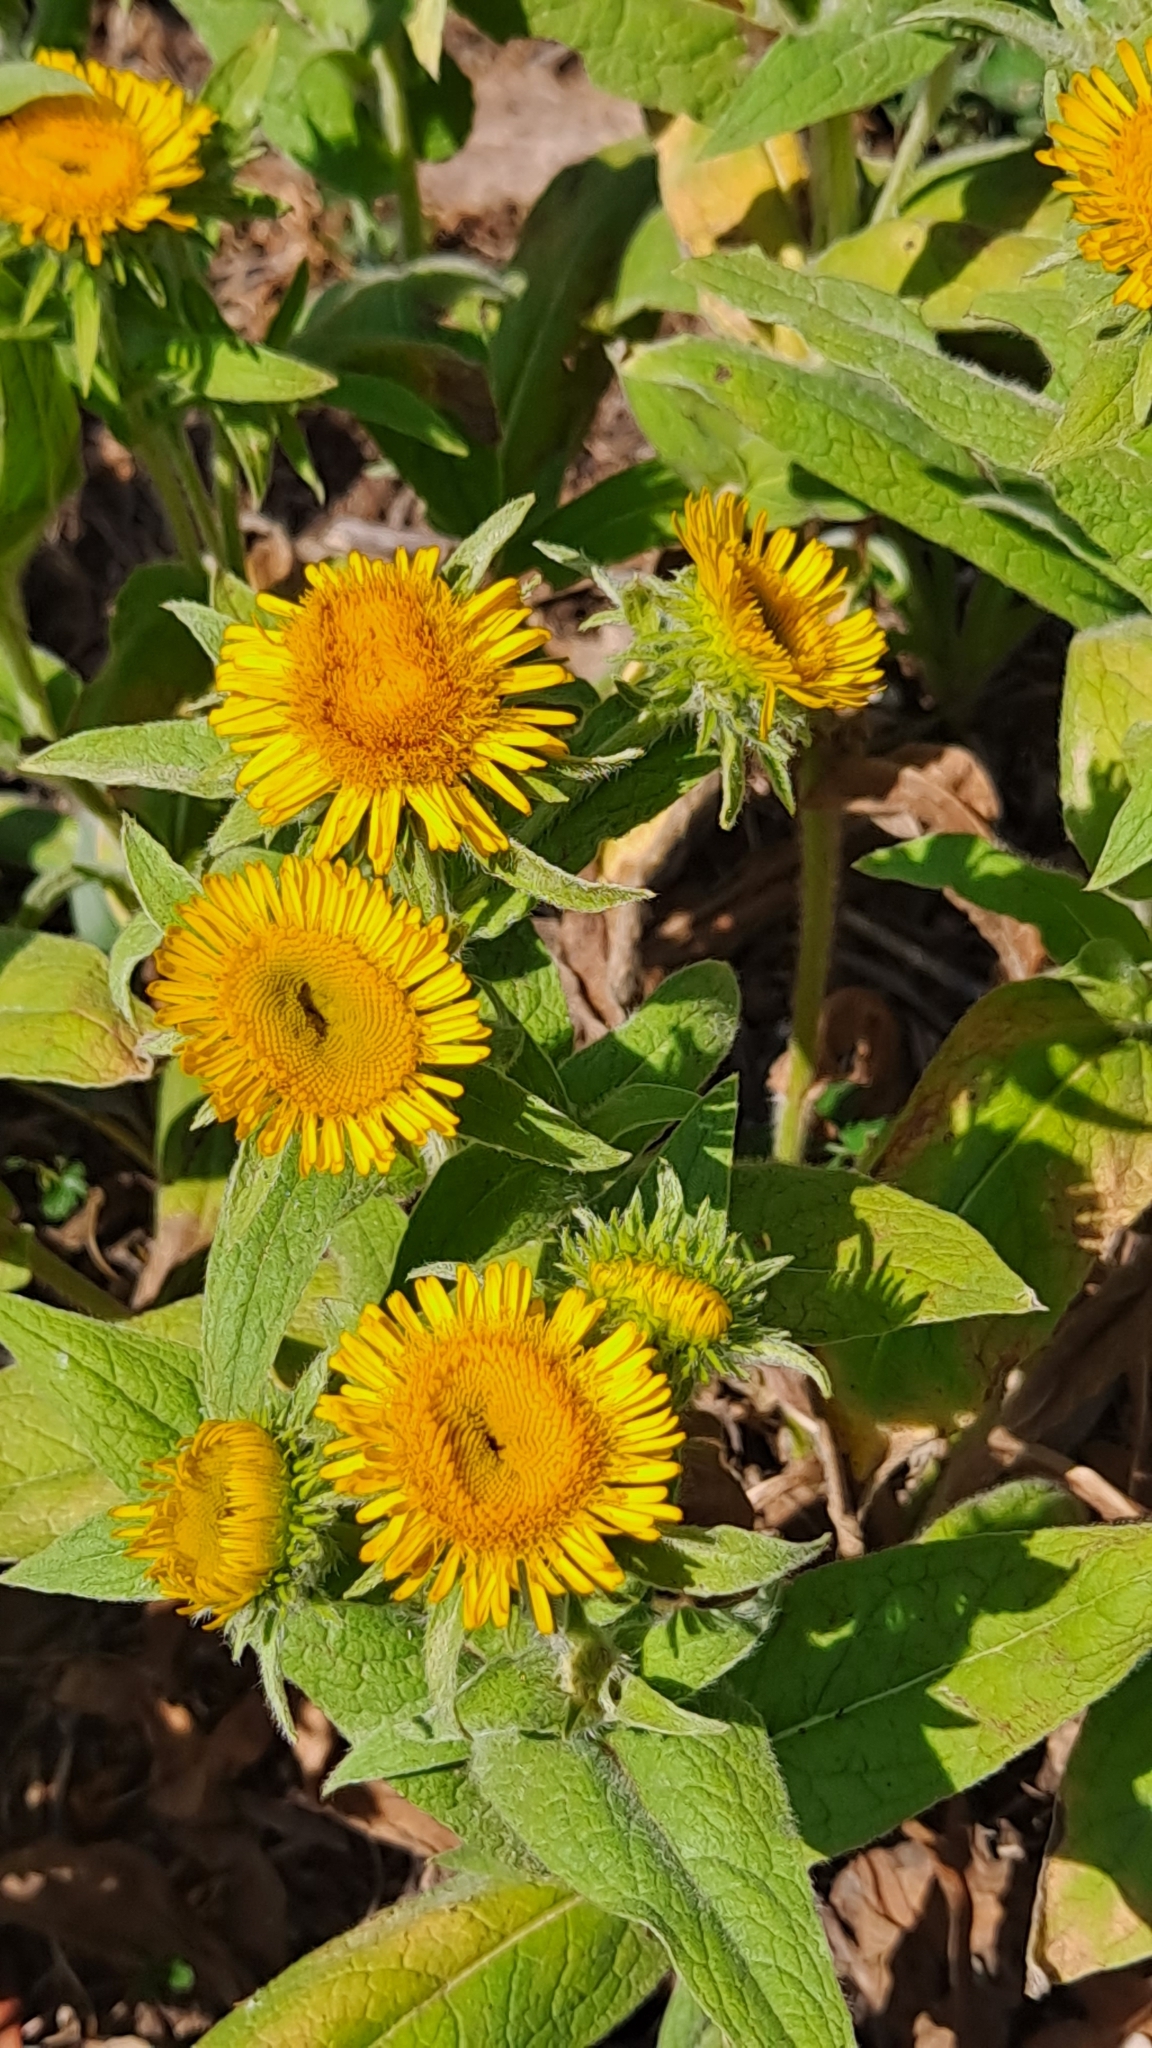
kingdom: Plantae
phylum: Tracheophyta
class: Magnoliopsida
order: Asterales
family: Asteraceae
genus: Pulicaria
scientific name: Pulicaria dysenterica
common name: Common fleabane
